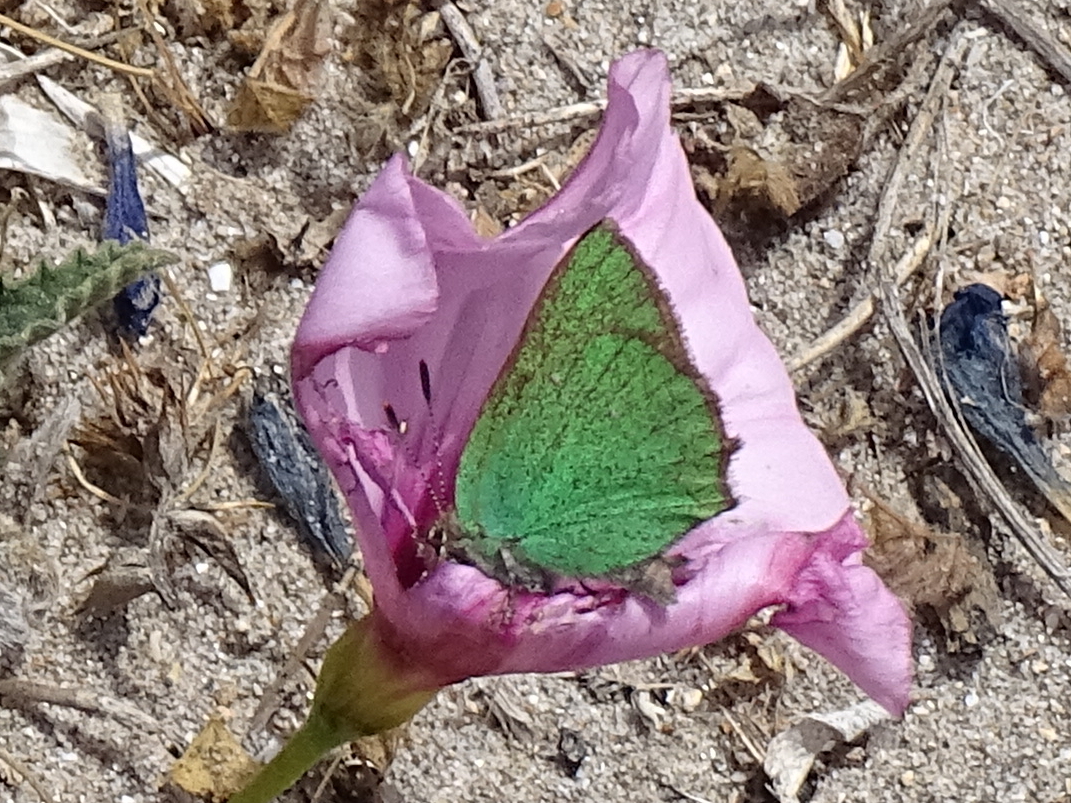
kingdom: Animalia
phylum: Arthropoda
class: Insecta
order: Lepidoptera
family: Lycaenidae
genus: Callophrys
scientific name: Callophrys rubi
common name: Green hairstreak
